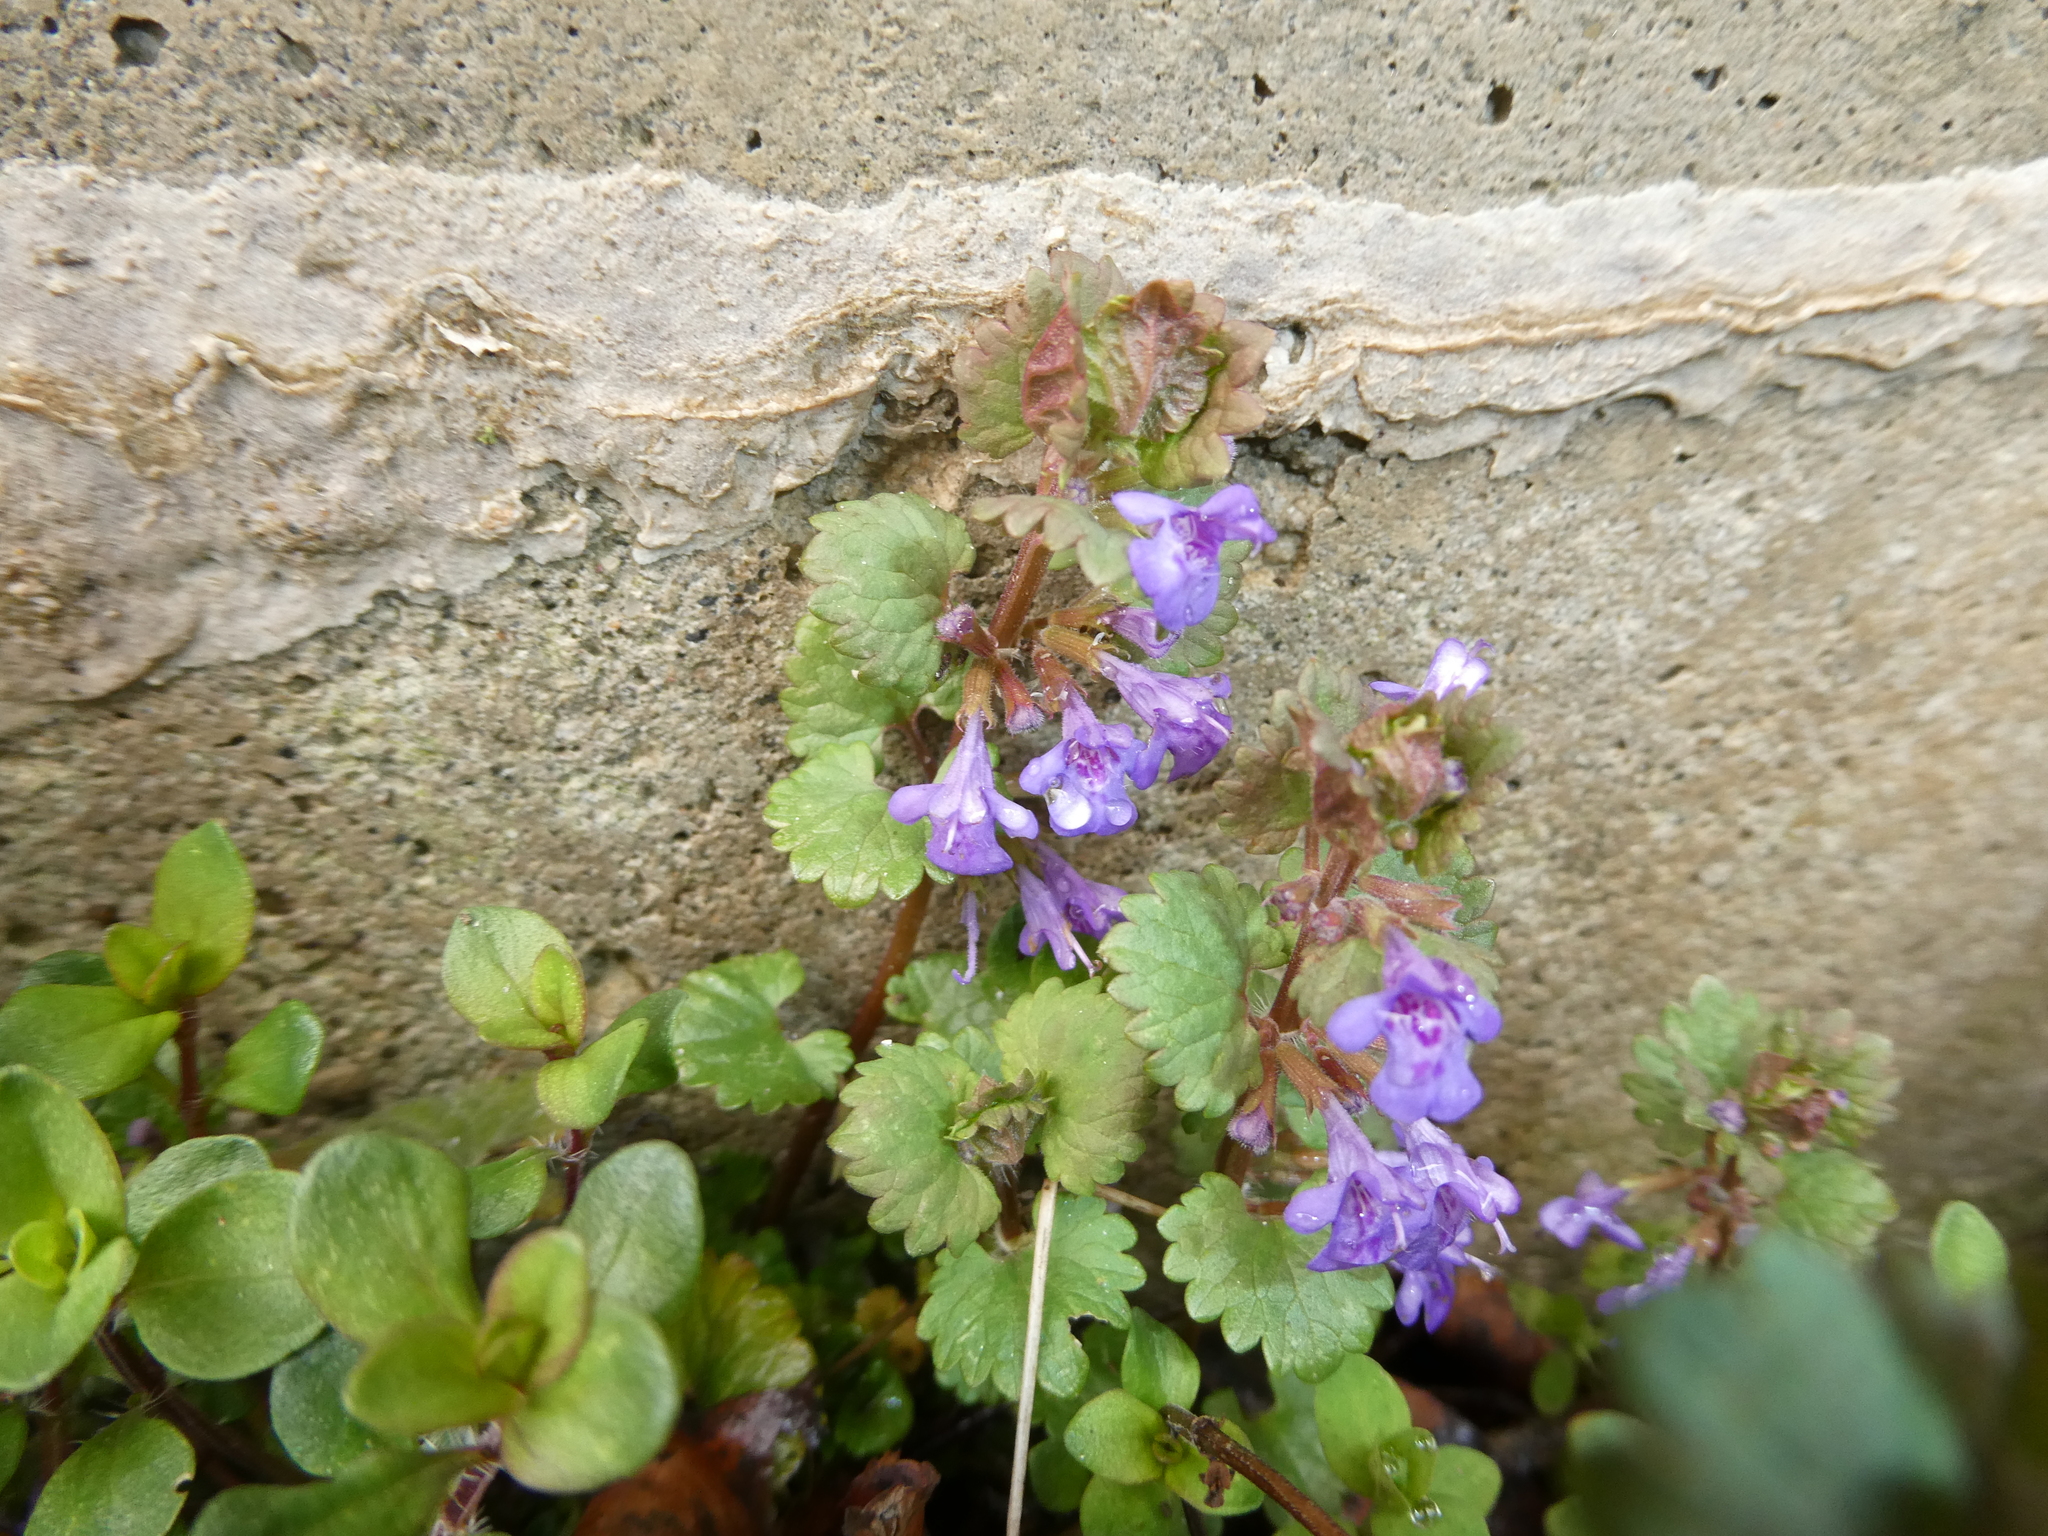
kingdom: Plantae
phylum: Tracheophyta
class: Magnoliopsida
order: Lamiales
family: Lamiaceae
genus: Glechoma
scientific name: Glechoma hederacea
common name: Ground ivy
